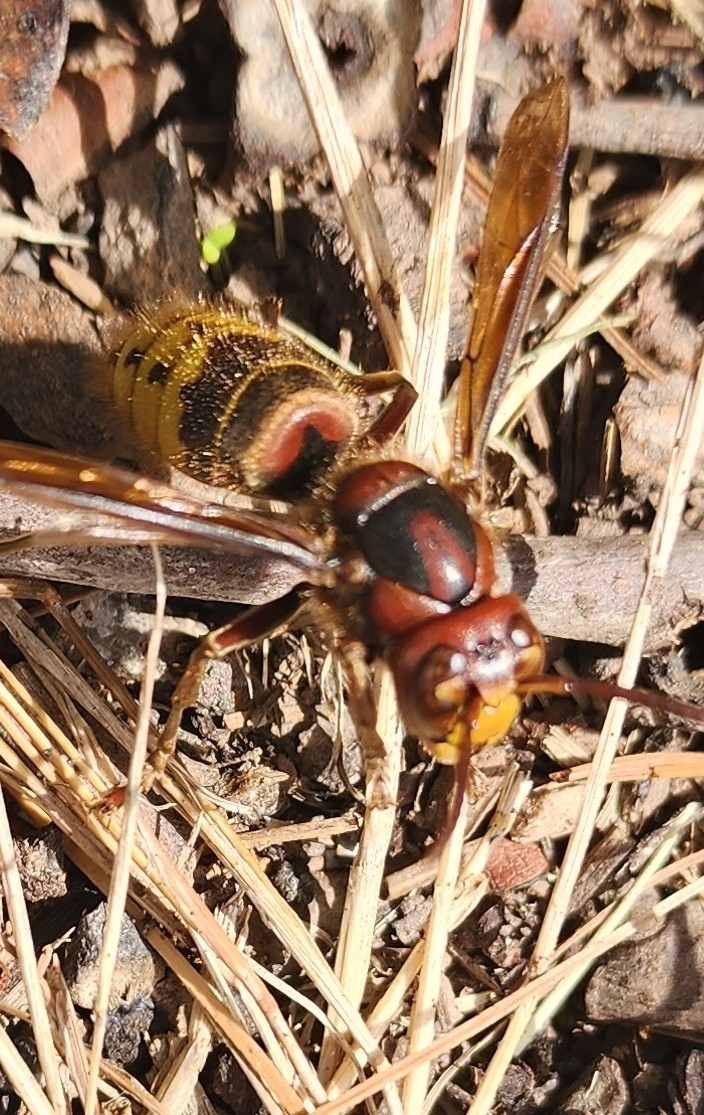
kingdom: Animalia
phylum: Arthropoda
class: Insecta
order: Hymenoptera
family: Vespidae
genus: Vespa
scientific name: Vespa crabro
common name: Hornet
